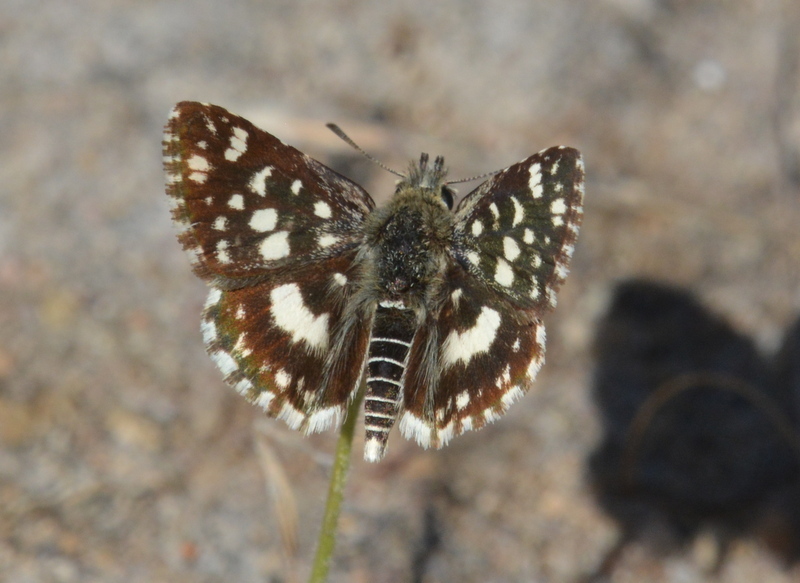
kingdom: Animalia
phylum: Arthropoda
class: Insecta
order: Lepidoptera
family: Hesperiidae
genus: Ernsta
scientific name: Ernsta
